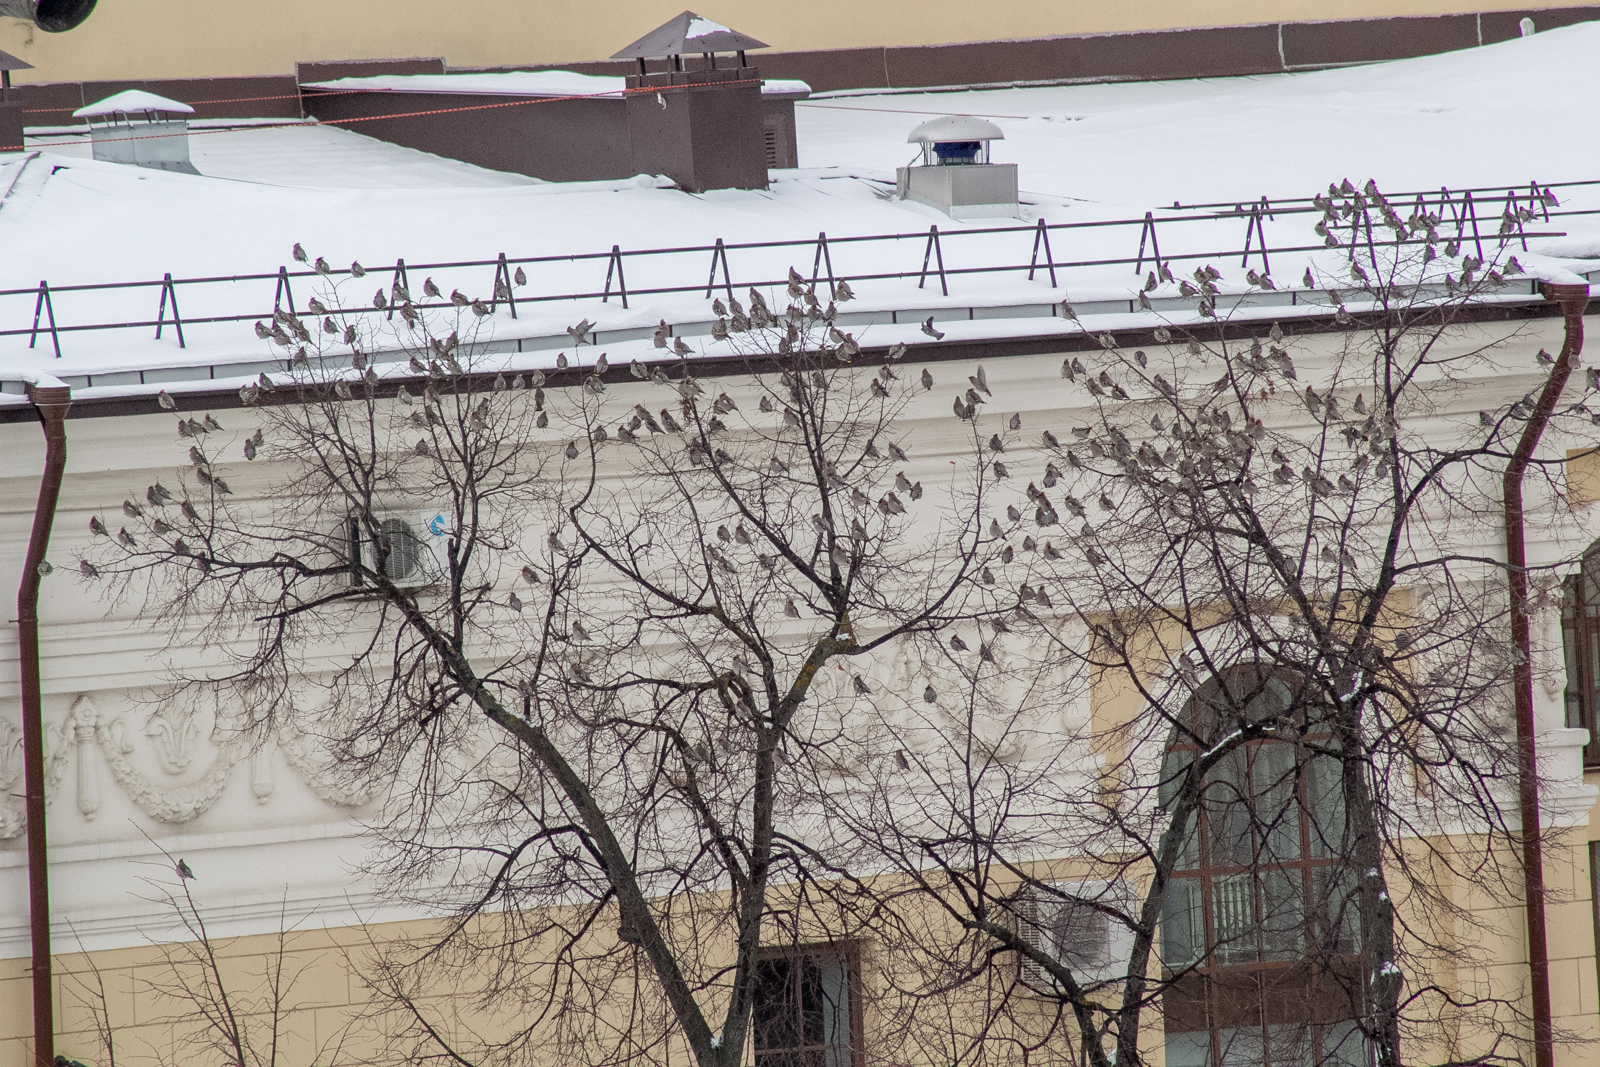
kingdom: Animalia
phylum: Chordata
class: Aves
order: Passeriformes
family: Bombycillidae
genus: Bombycilla
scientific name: Bombycilla garrulus
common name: Bohemian waxwing
